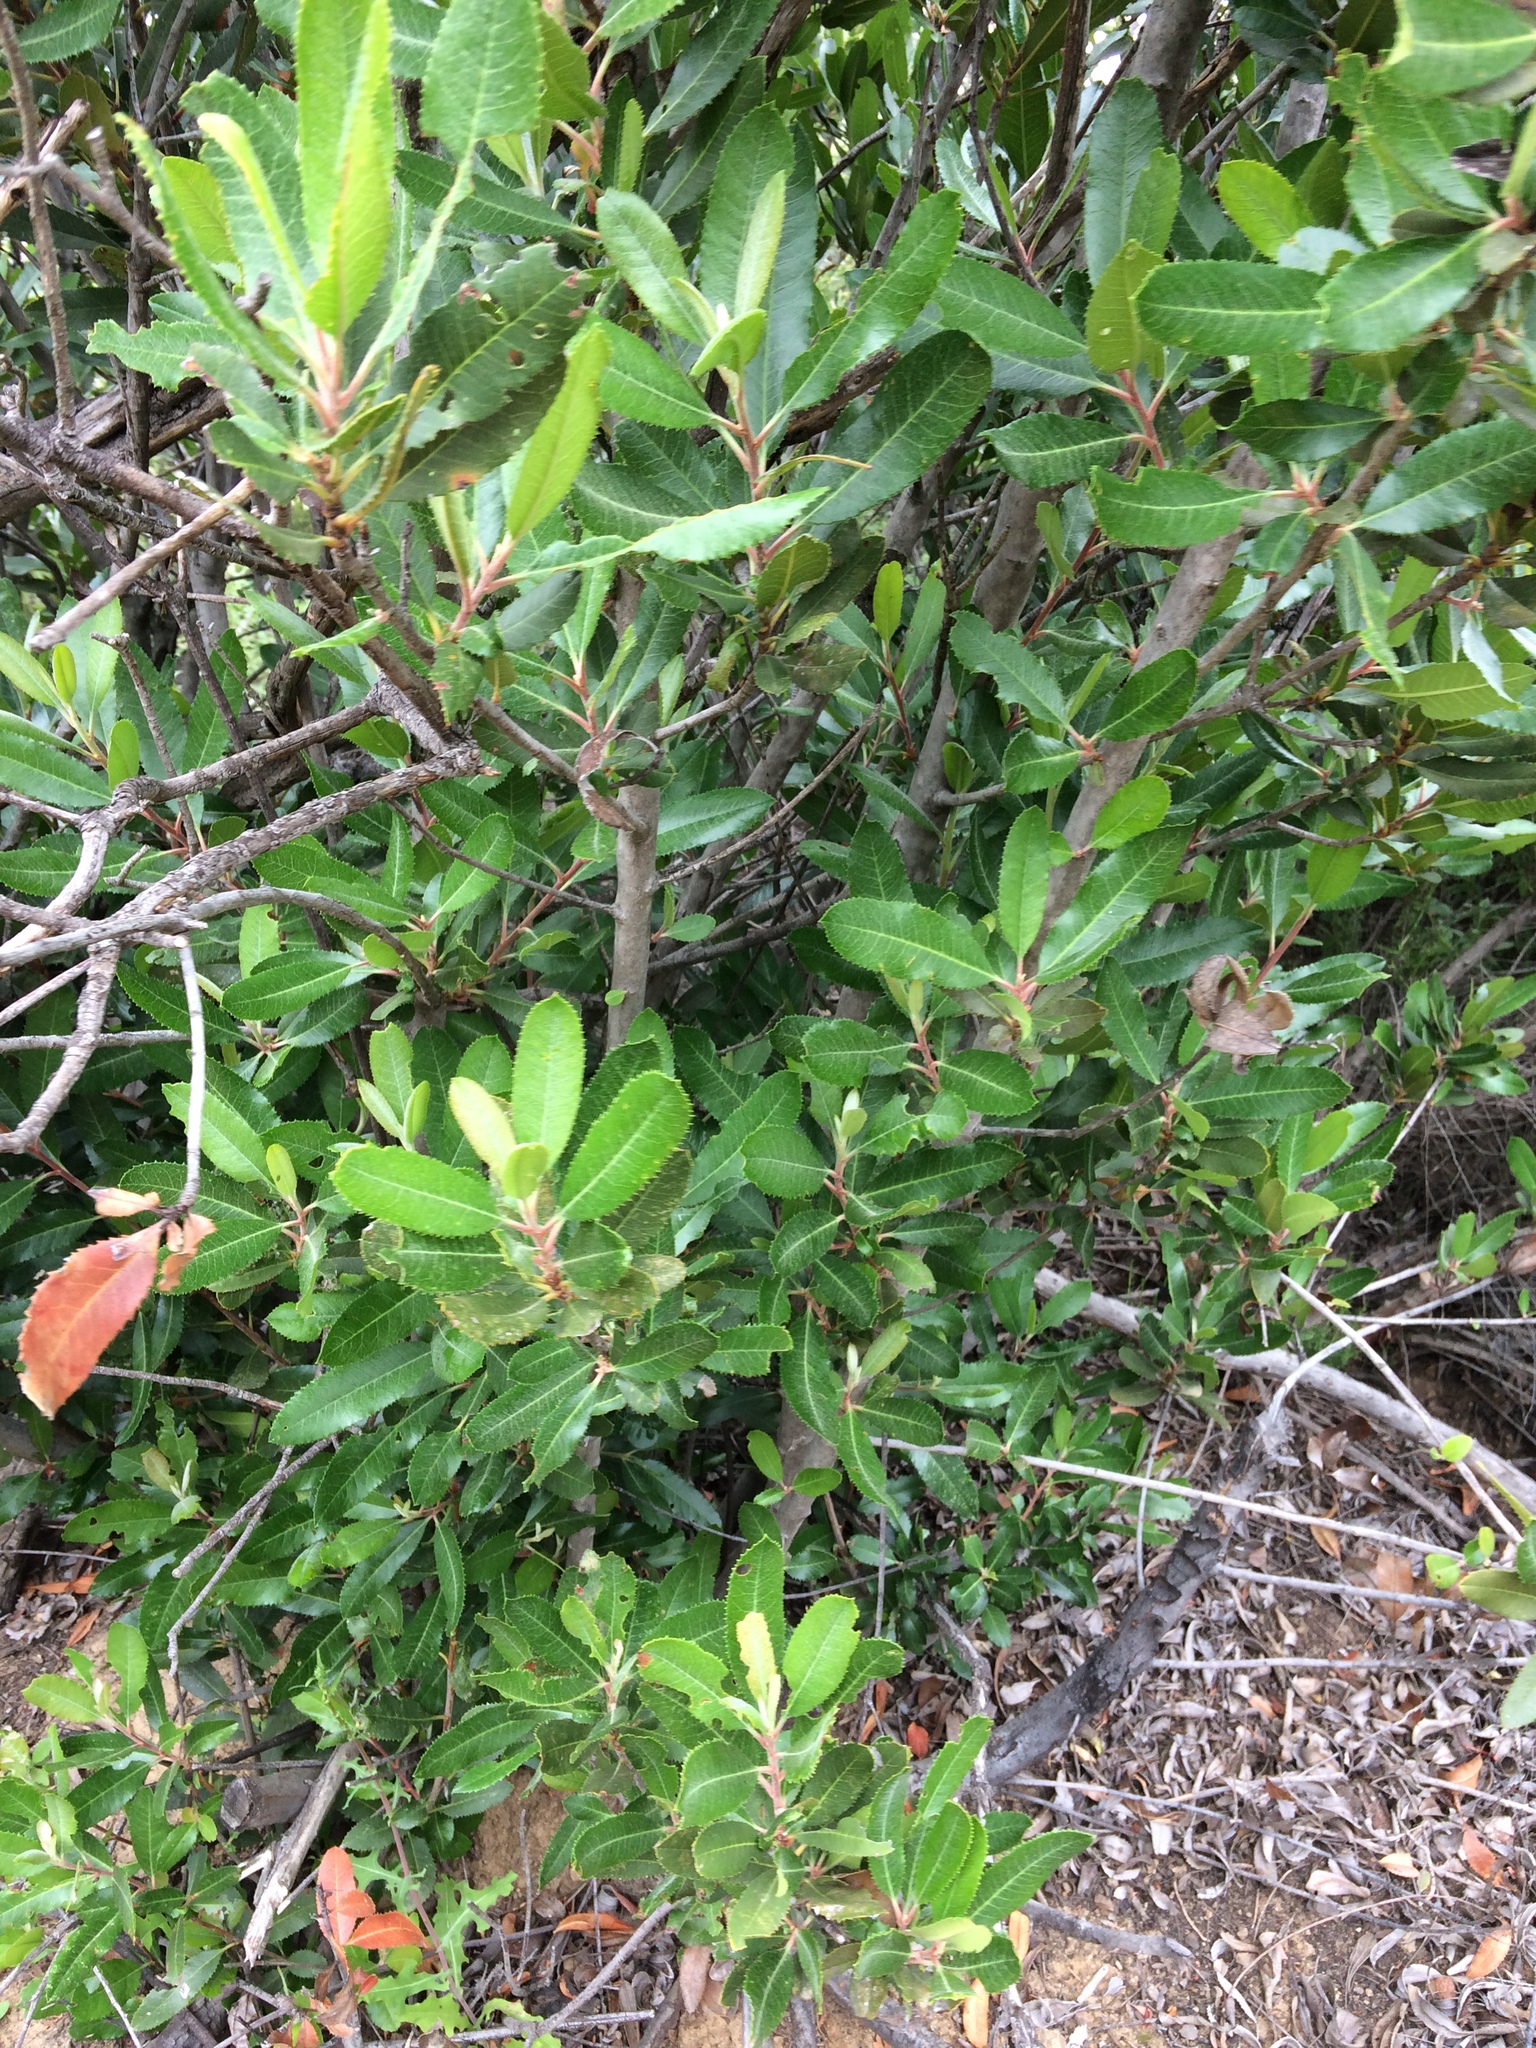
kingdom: Plantae
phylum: Tracheophyta
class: Magnoliopsida
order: Rosales
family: Rosaceae
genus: Heteromeles
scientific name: Heteromeles arbutifolia
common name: California-holly
